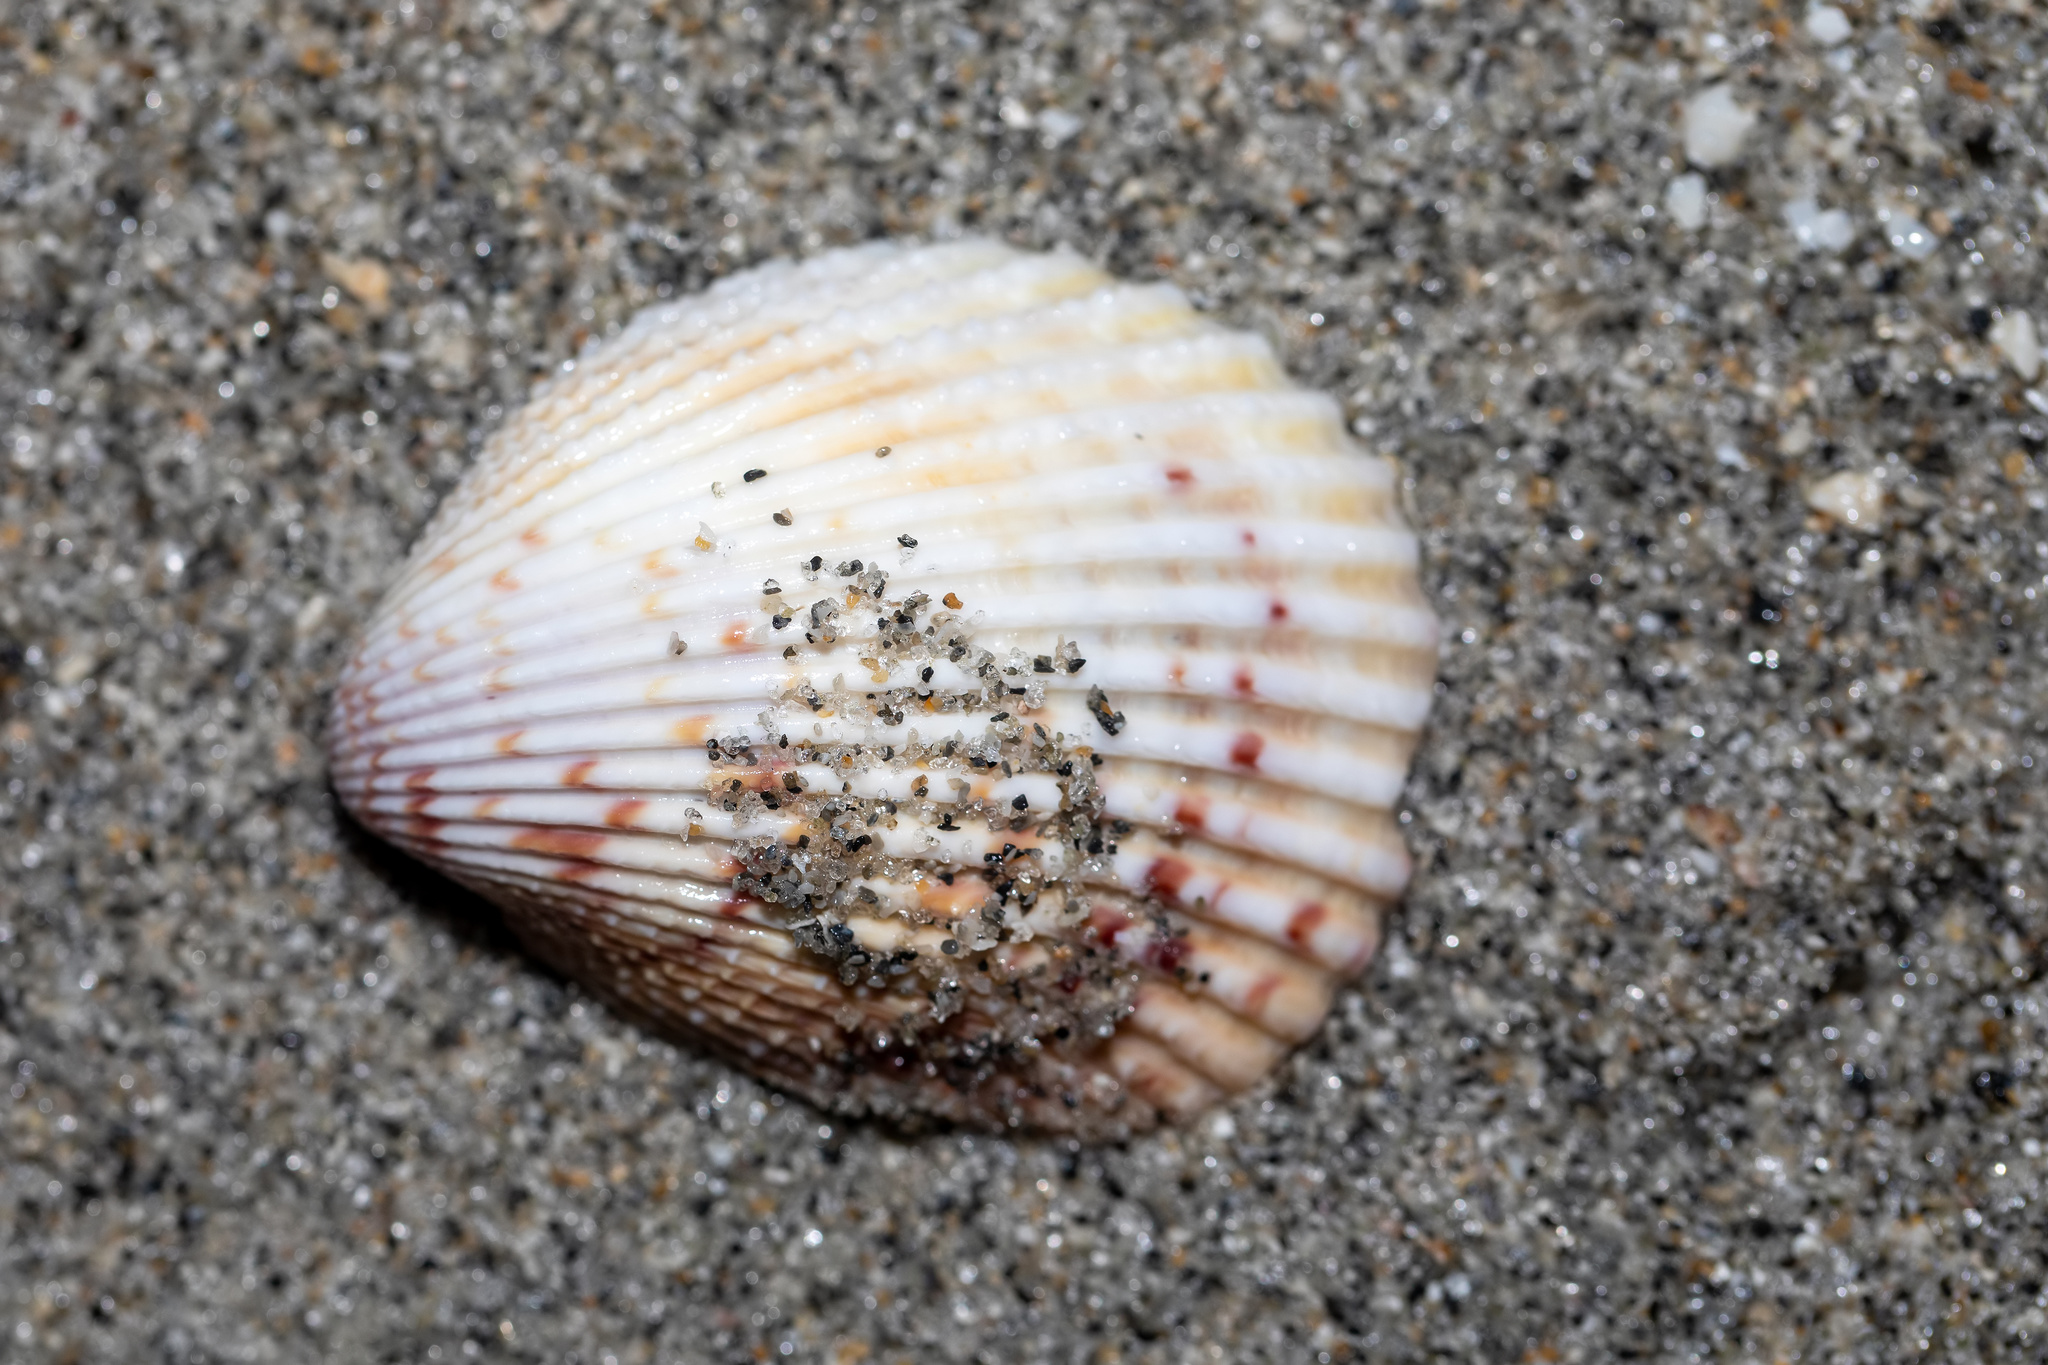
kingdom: Animalia
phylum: Mollusca
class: Bivalvia
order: Cardiida
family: Cardiidae
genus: Trachycardium
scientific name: Trachycardium egmontianum
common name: Florida pricklycockle
